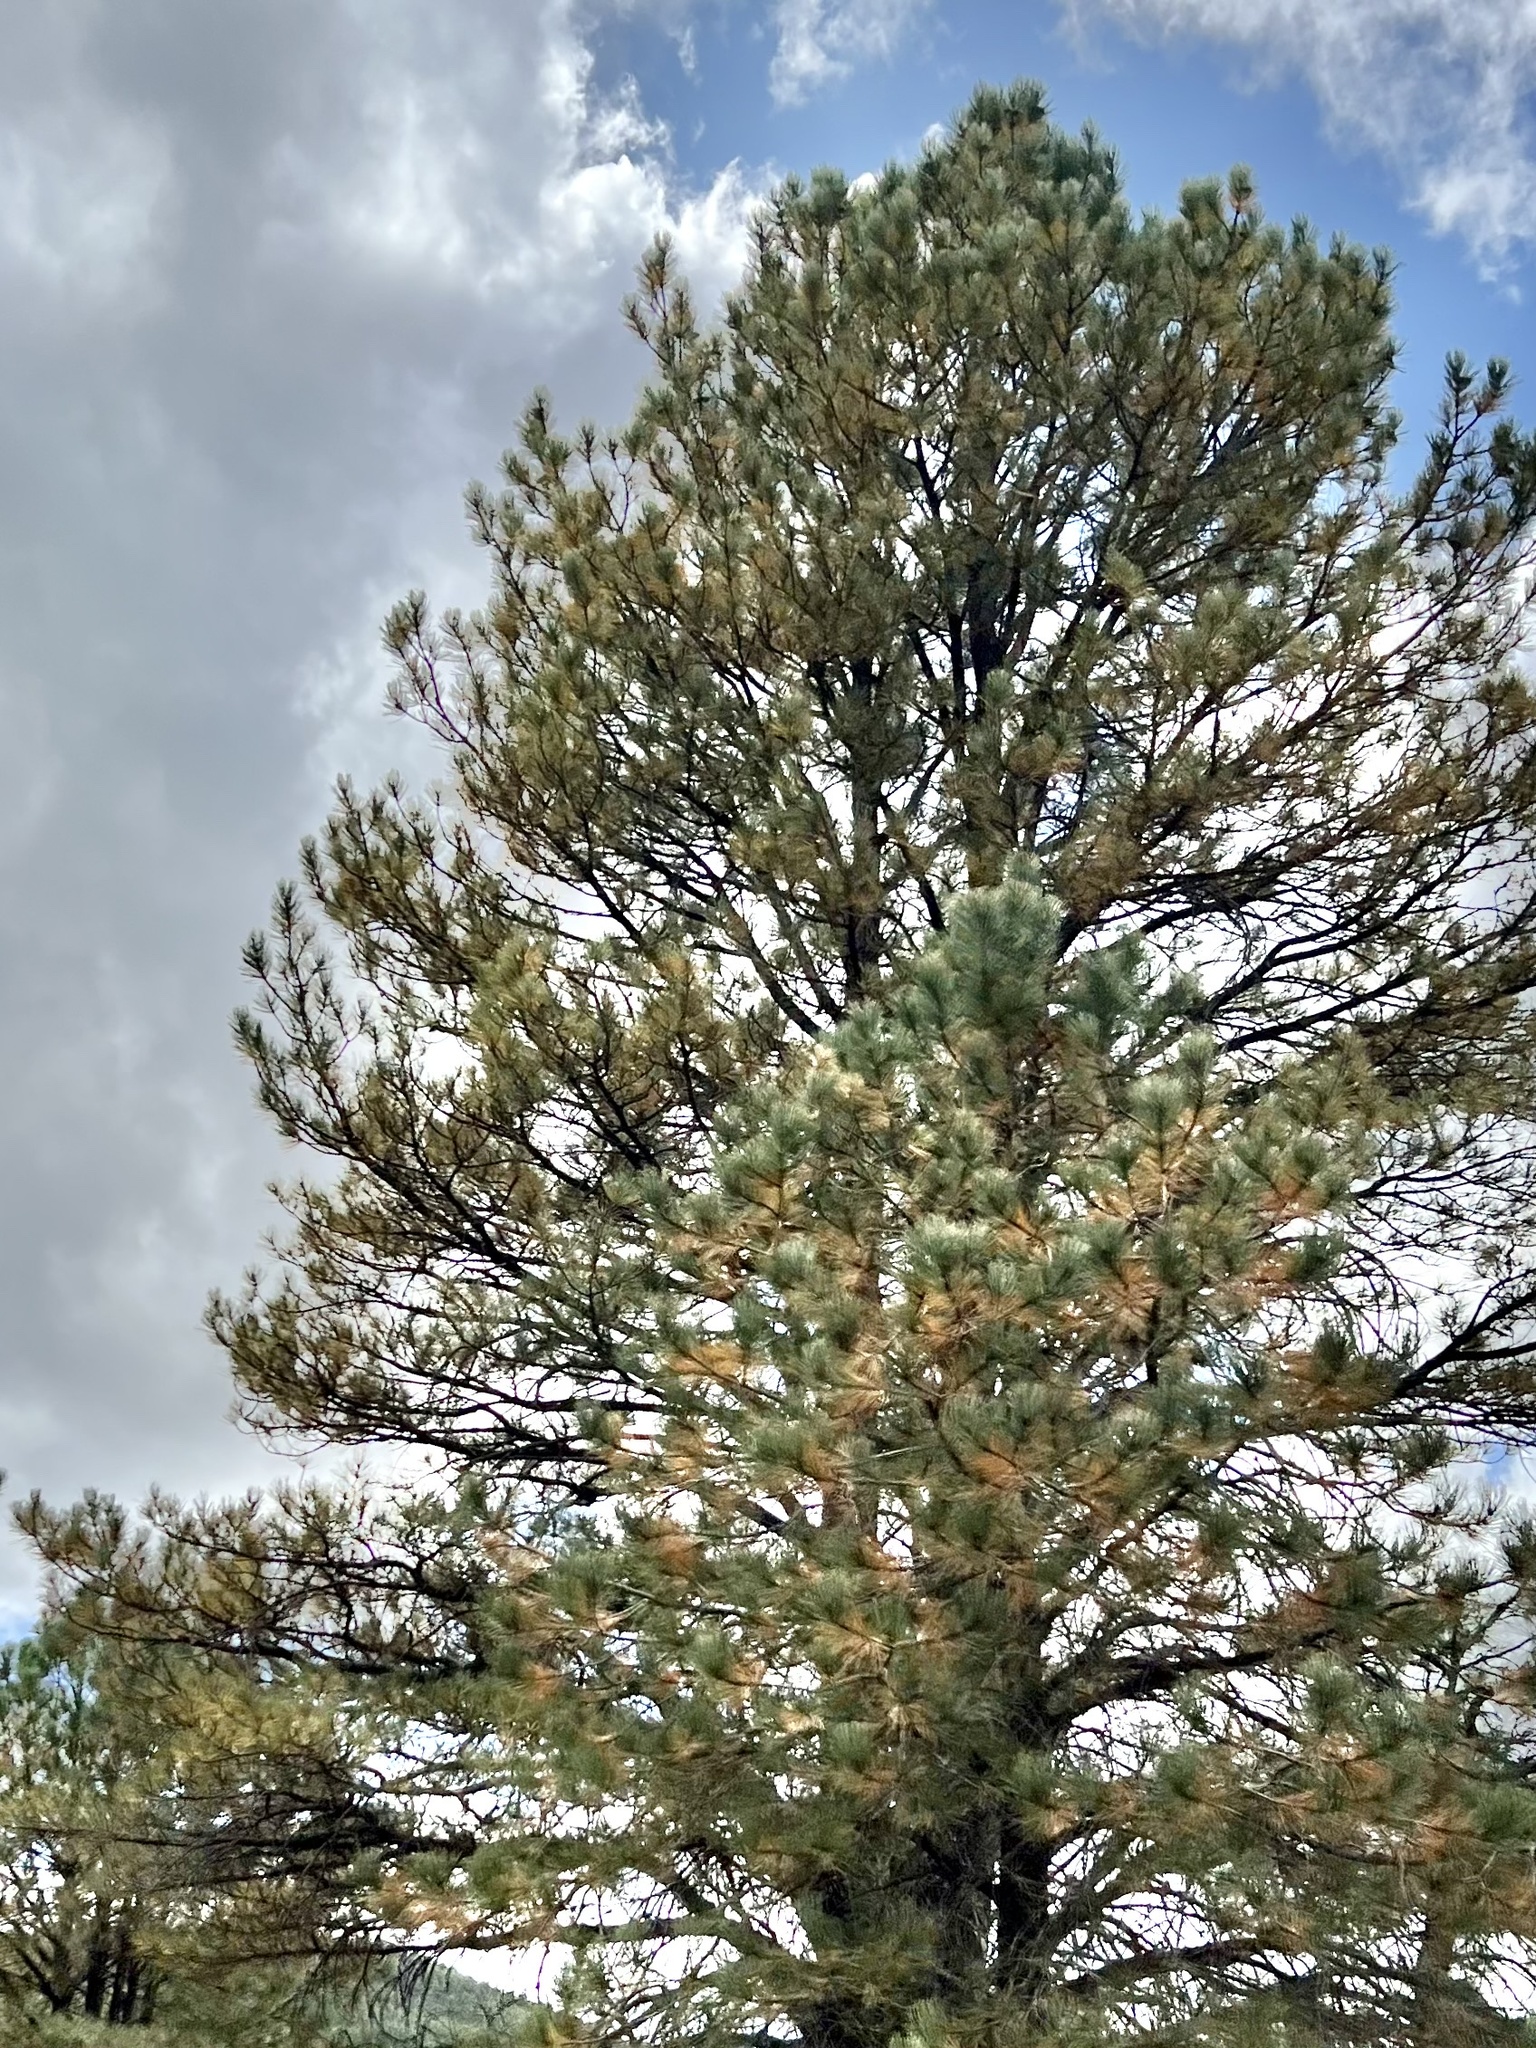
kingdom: Plantae
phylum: Tracheophyta
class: Pinopsida
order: Pinales
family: Pinaceae
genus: Pinus
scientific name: Pinus ponderosa
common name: Western yellow-pine
